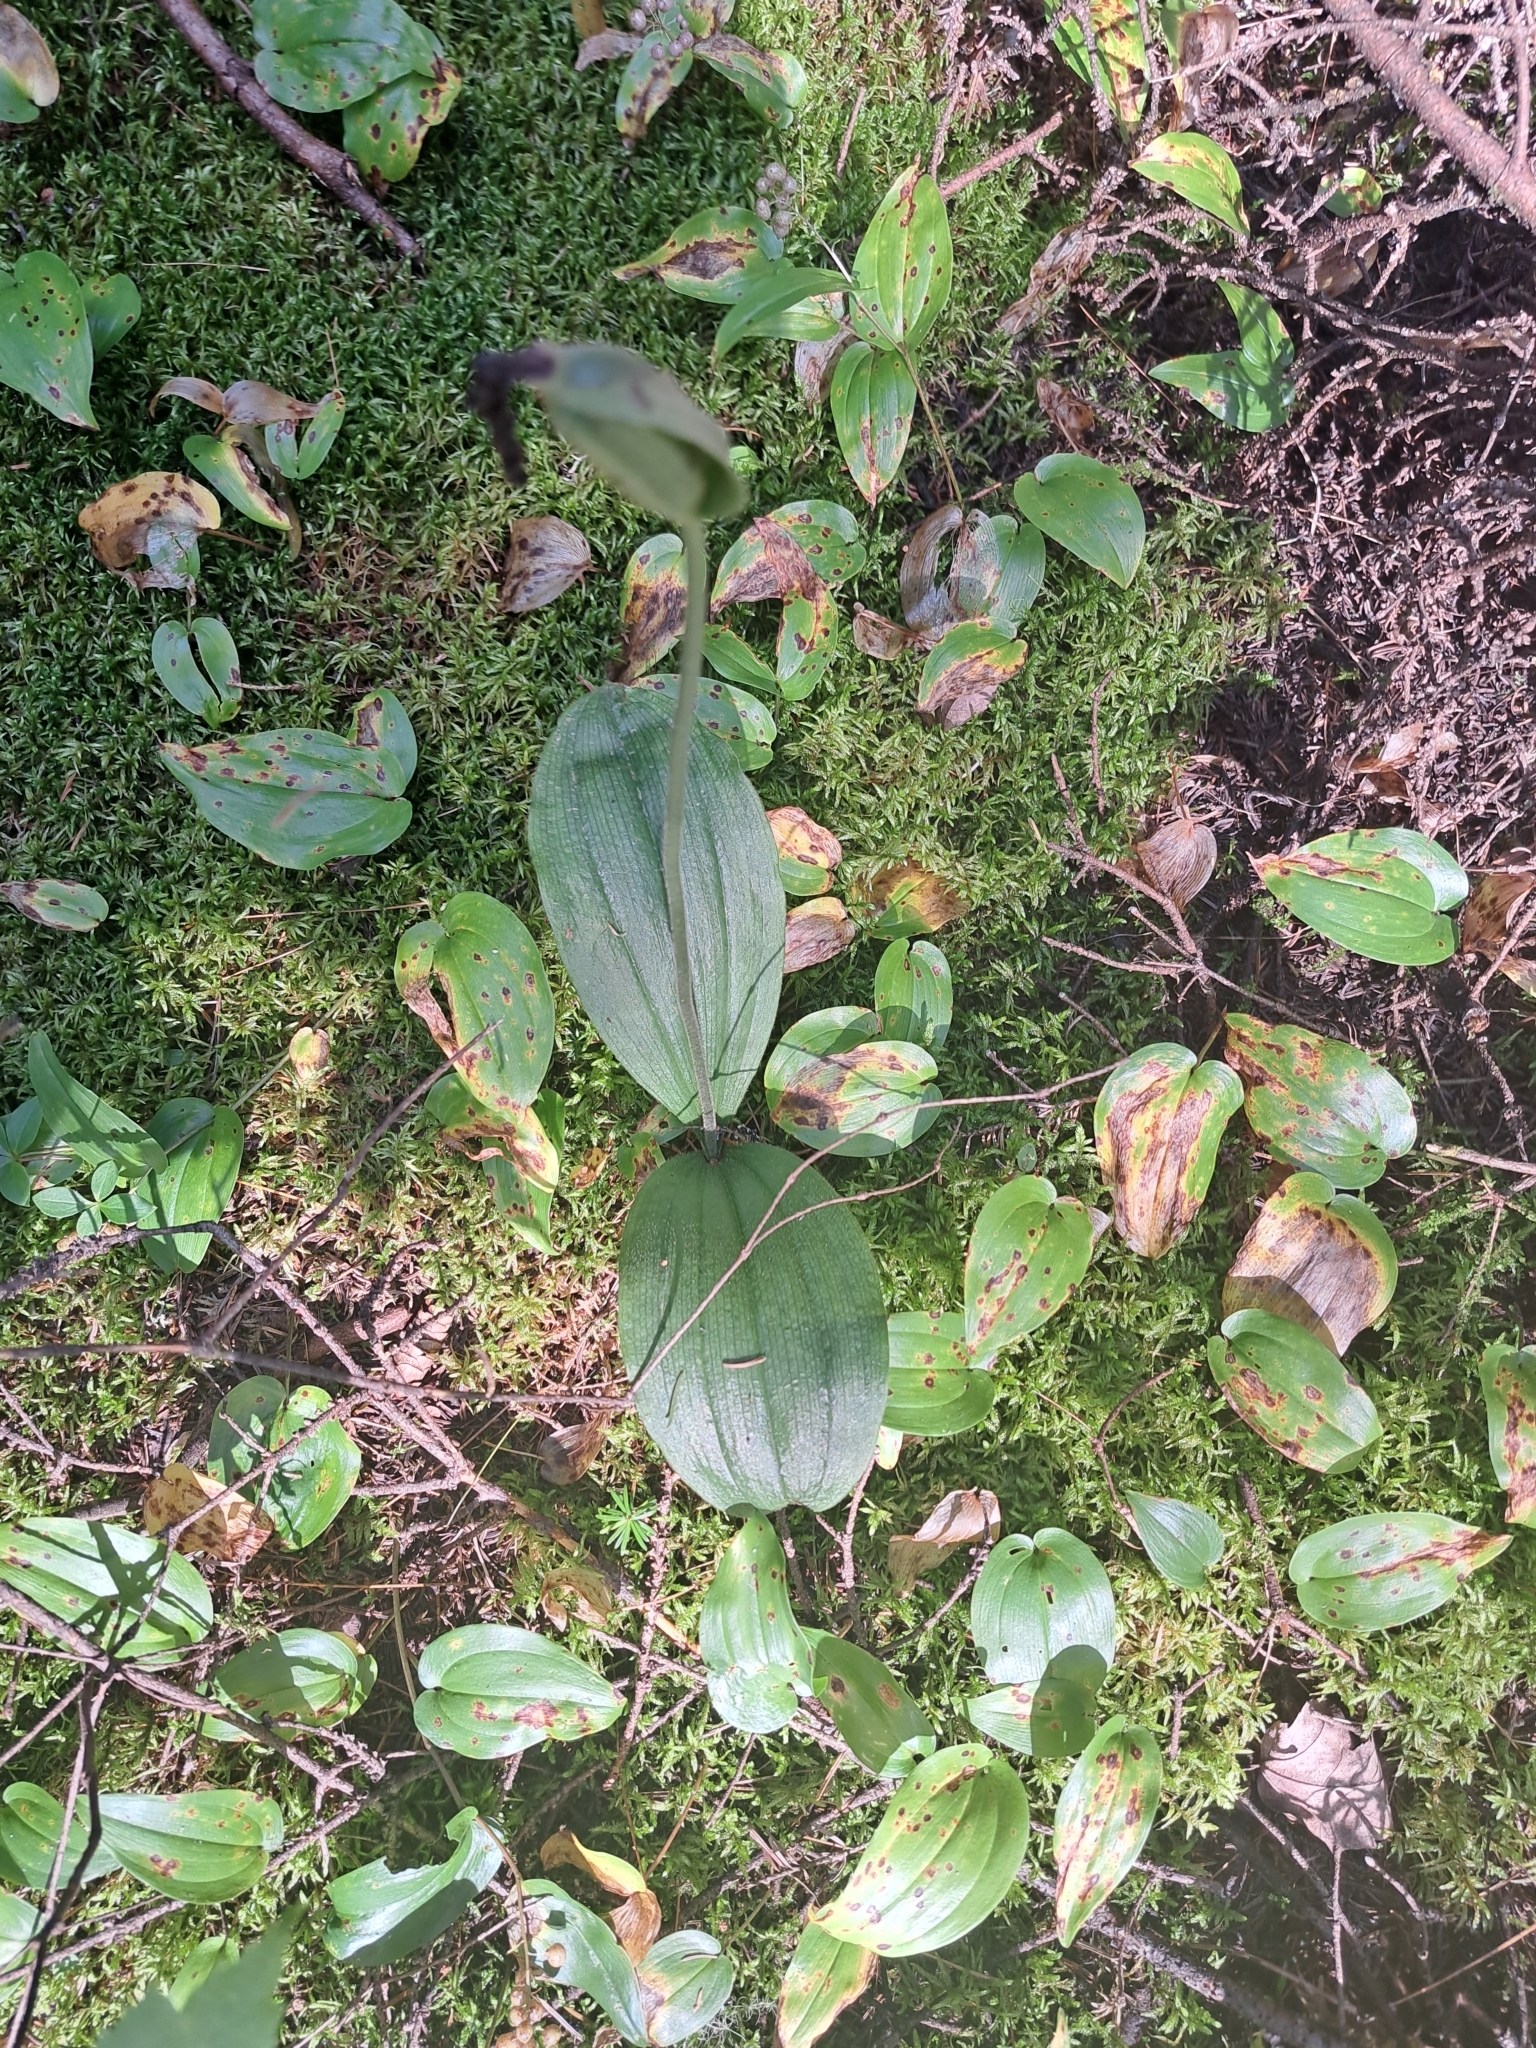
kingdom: Plantae
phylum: Tracheophyta
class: Liliopsida
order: Asparagales
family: Orchidaceae
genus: Cypripedium
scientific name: Cypripedium acaule
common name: Pink lady's-slipper
